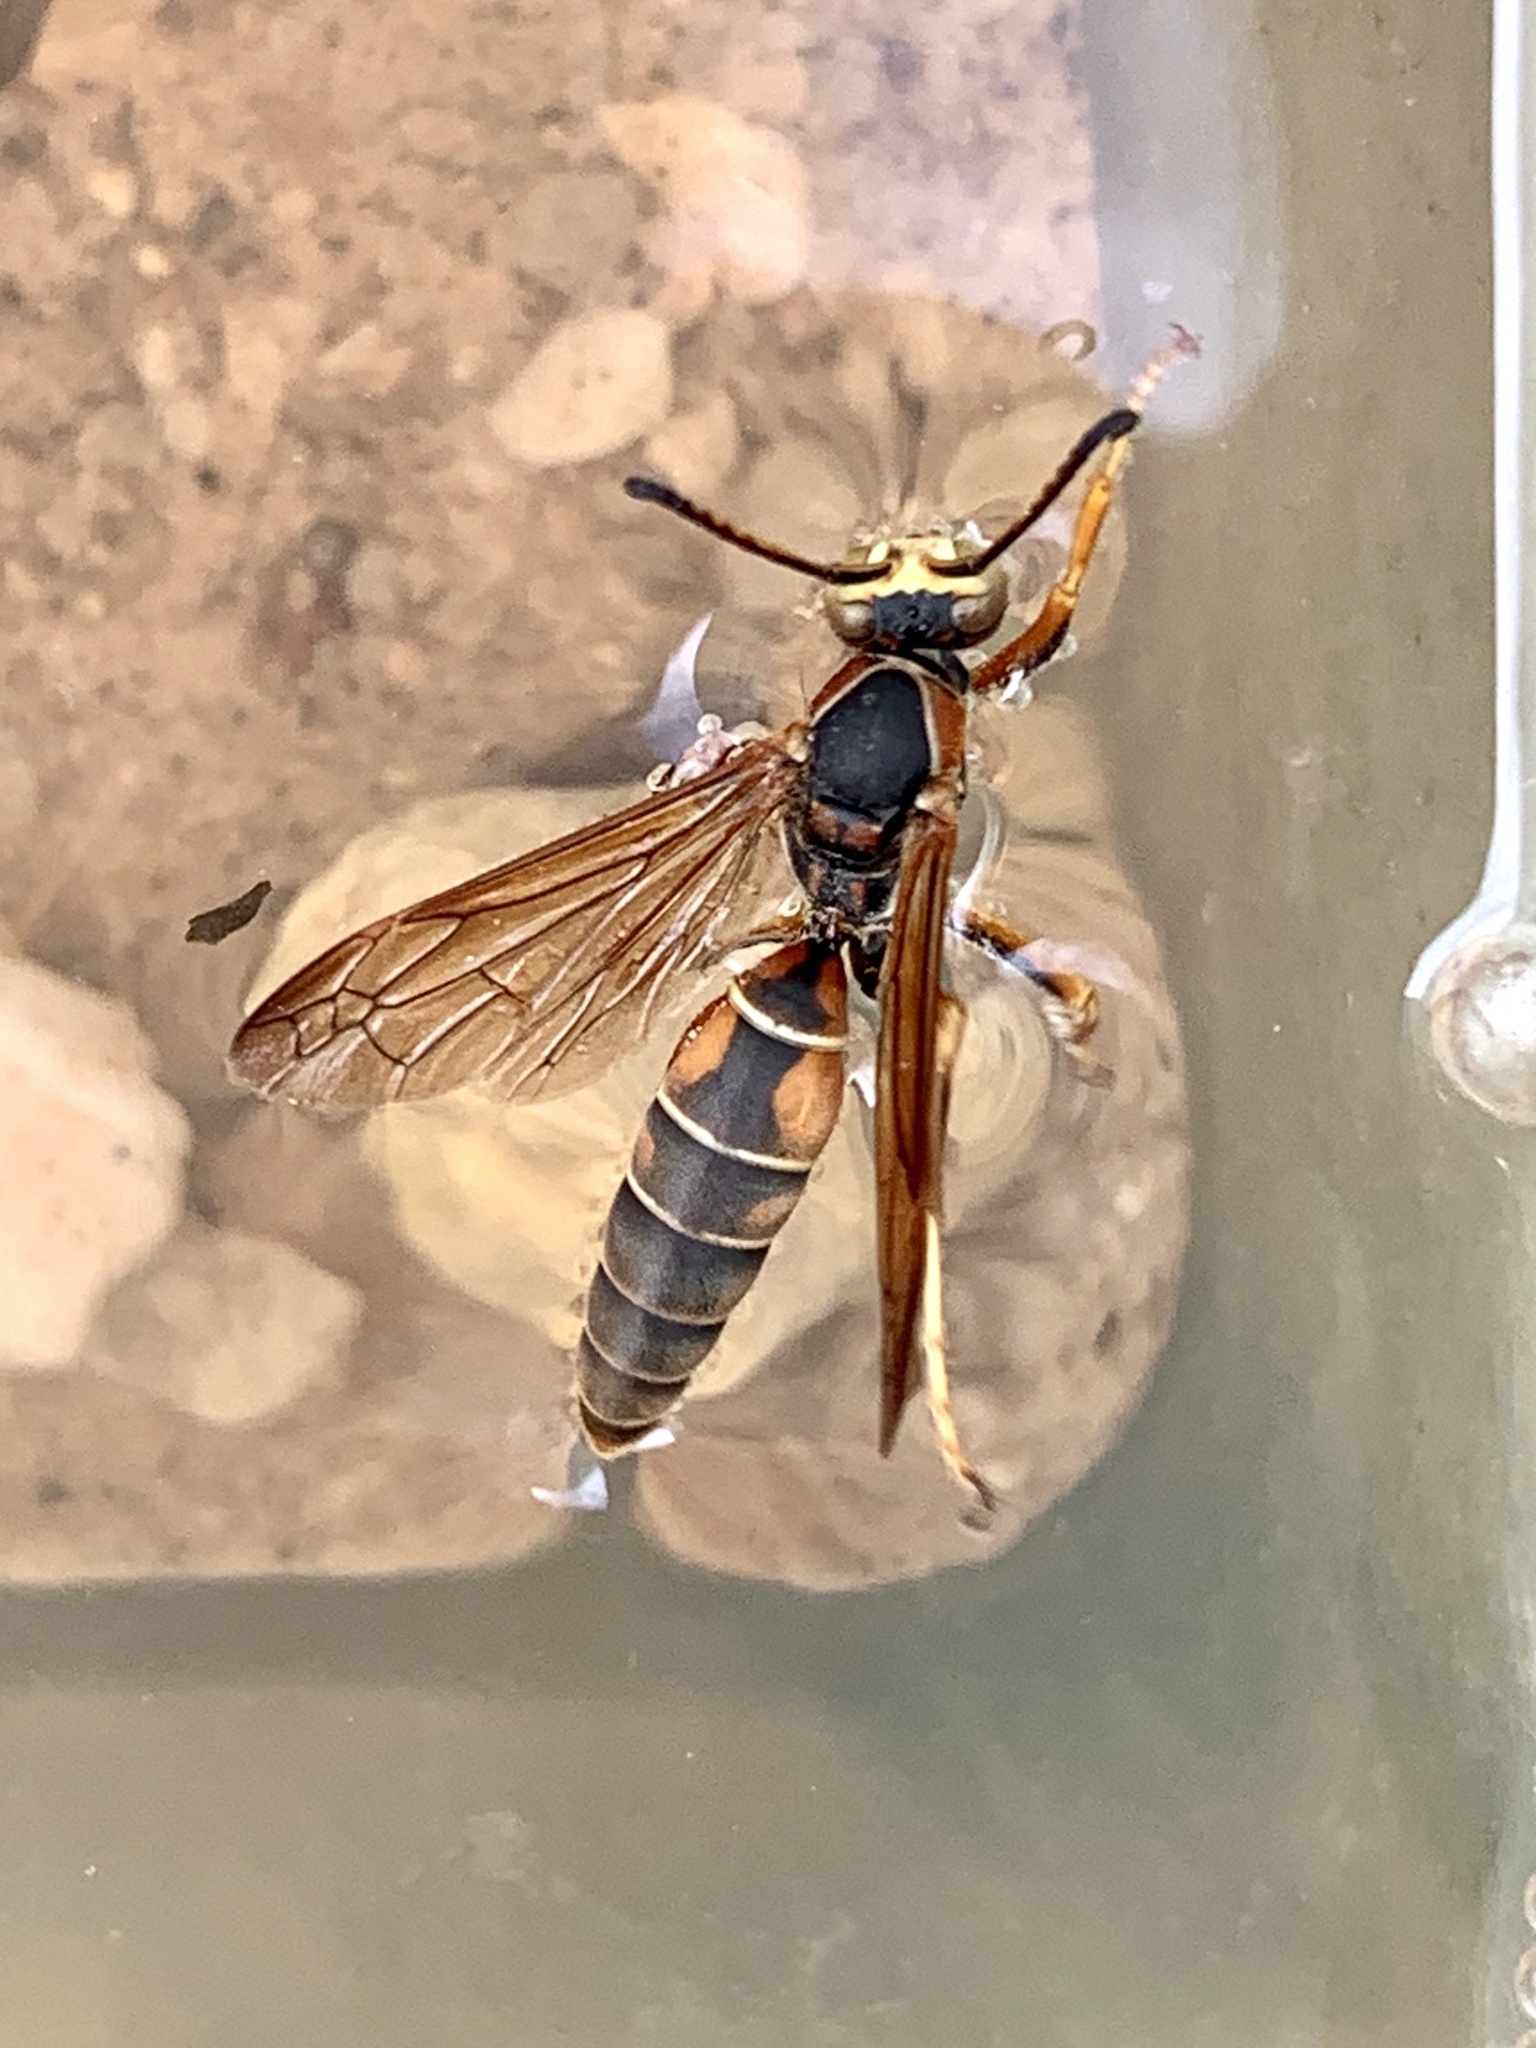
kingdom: Animalia
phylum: Arthropoda
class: Insecta
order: Hymenoptera
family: Eumenidae
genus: Polistes
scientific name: Polistes fuscatus
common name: Dark paper wasp
